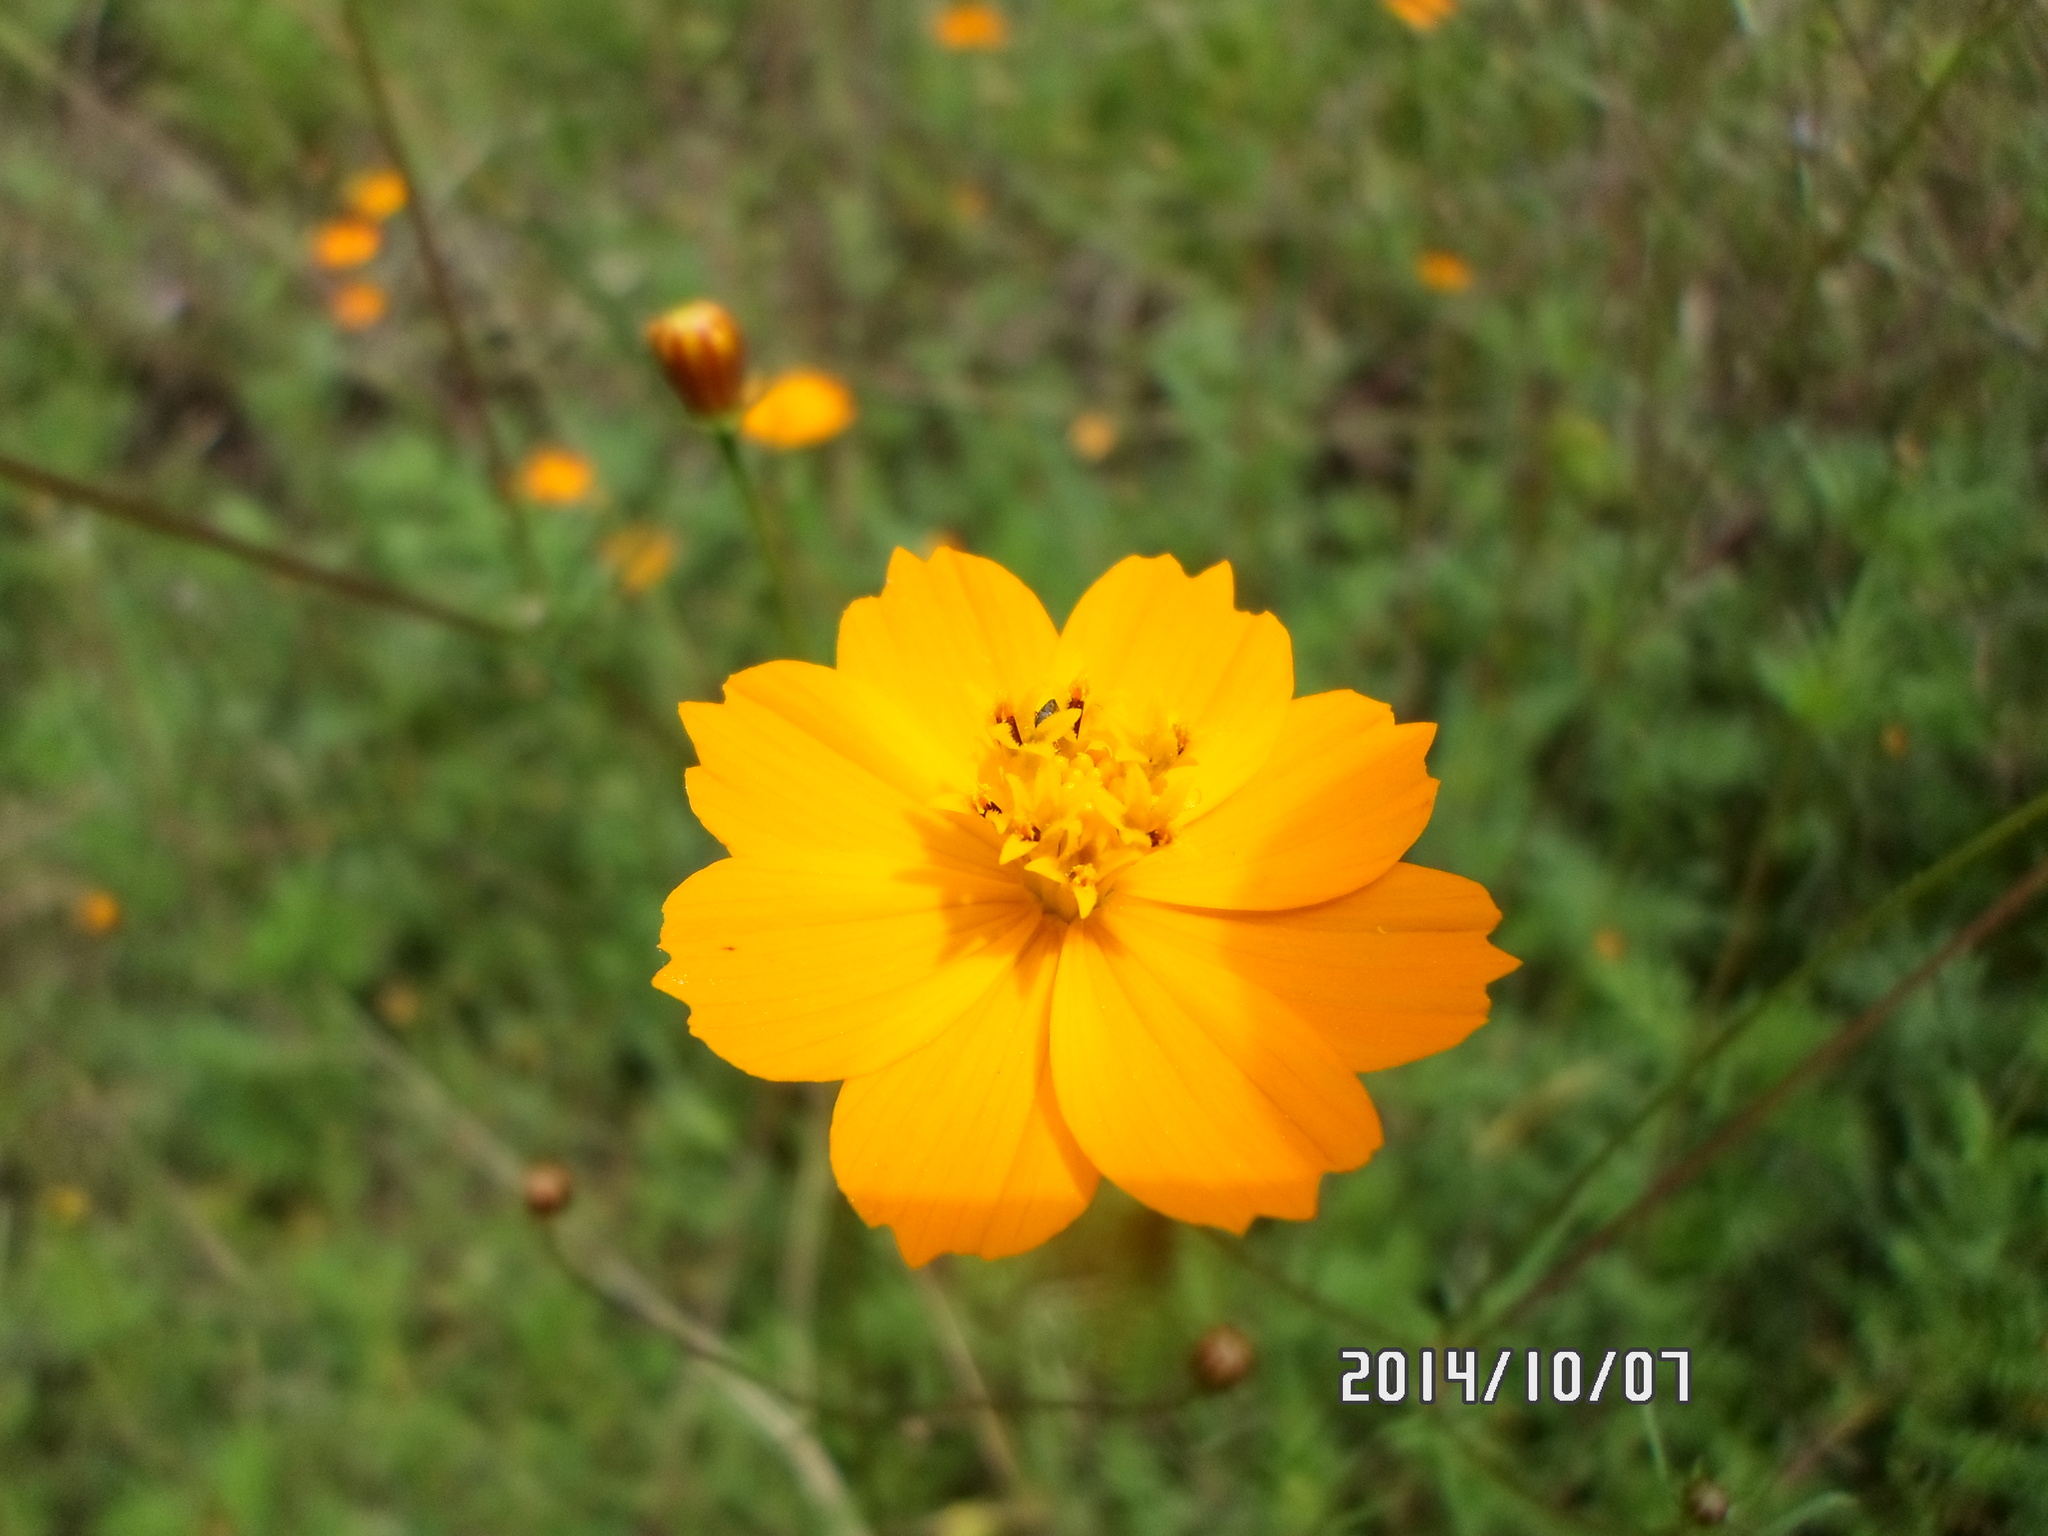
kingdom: Plantae
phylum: Tracheophyta
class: Magnoliopsida
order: Asterales
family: Asteraceae
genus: Cosmos
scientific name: Cosmos sulphureus
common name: Sulphur cosmos
